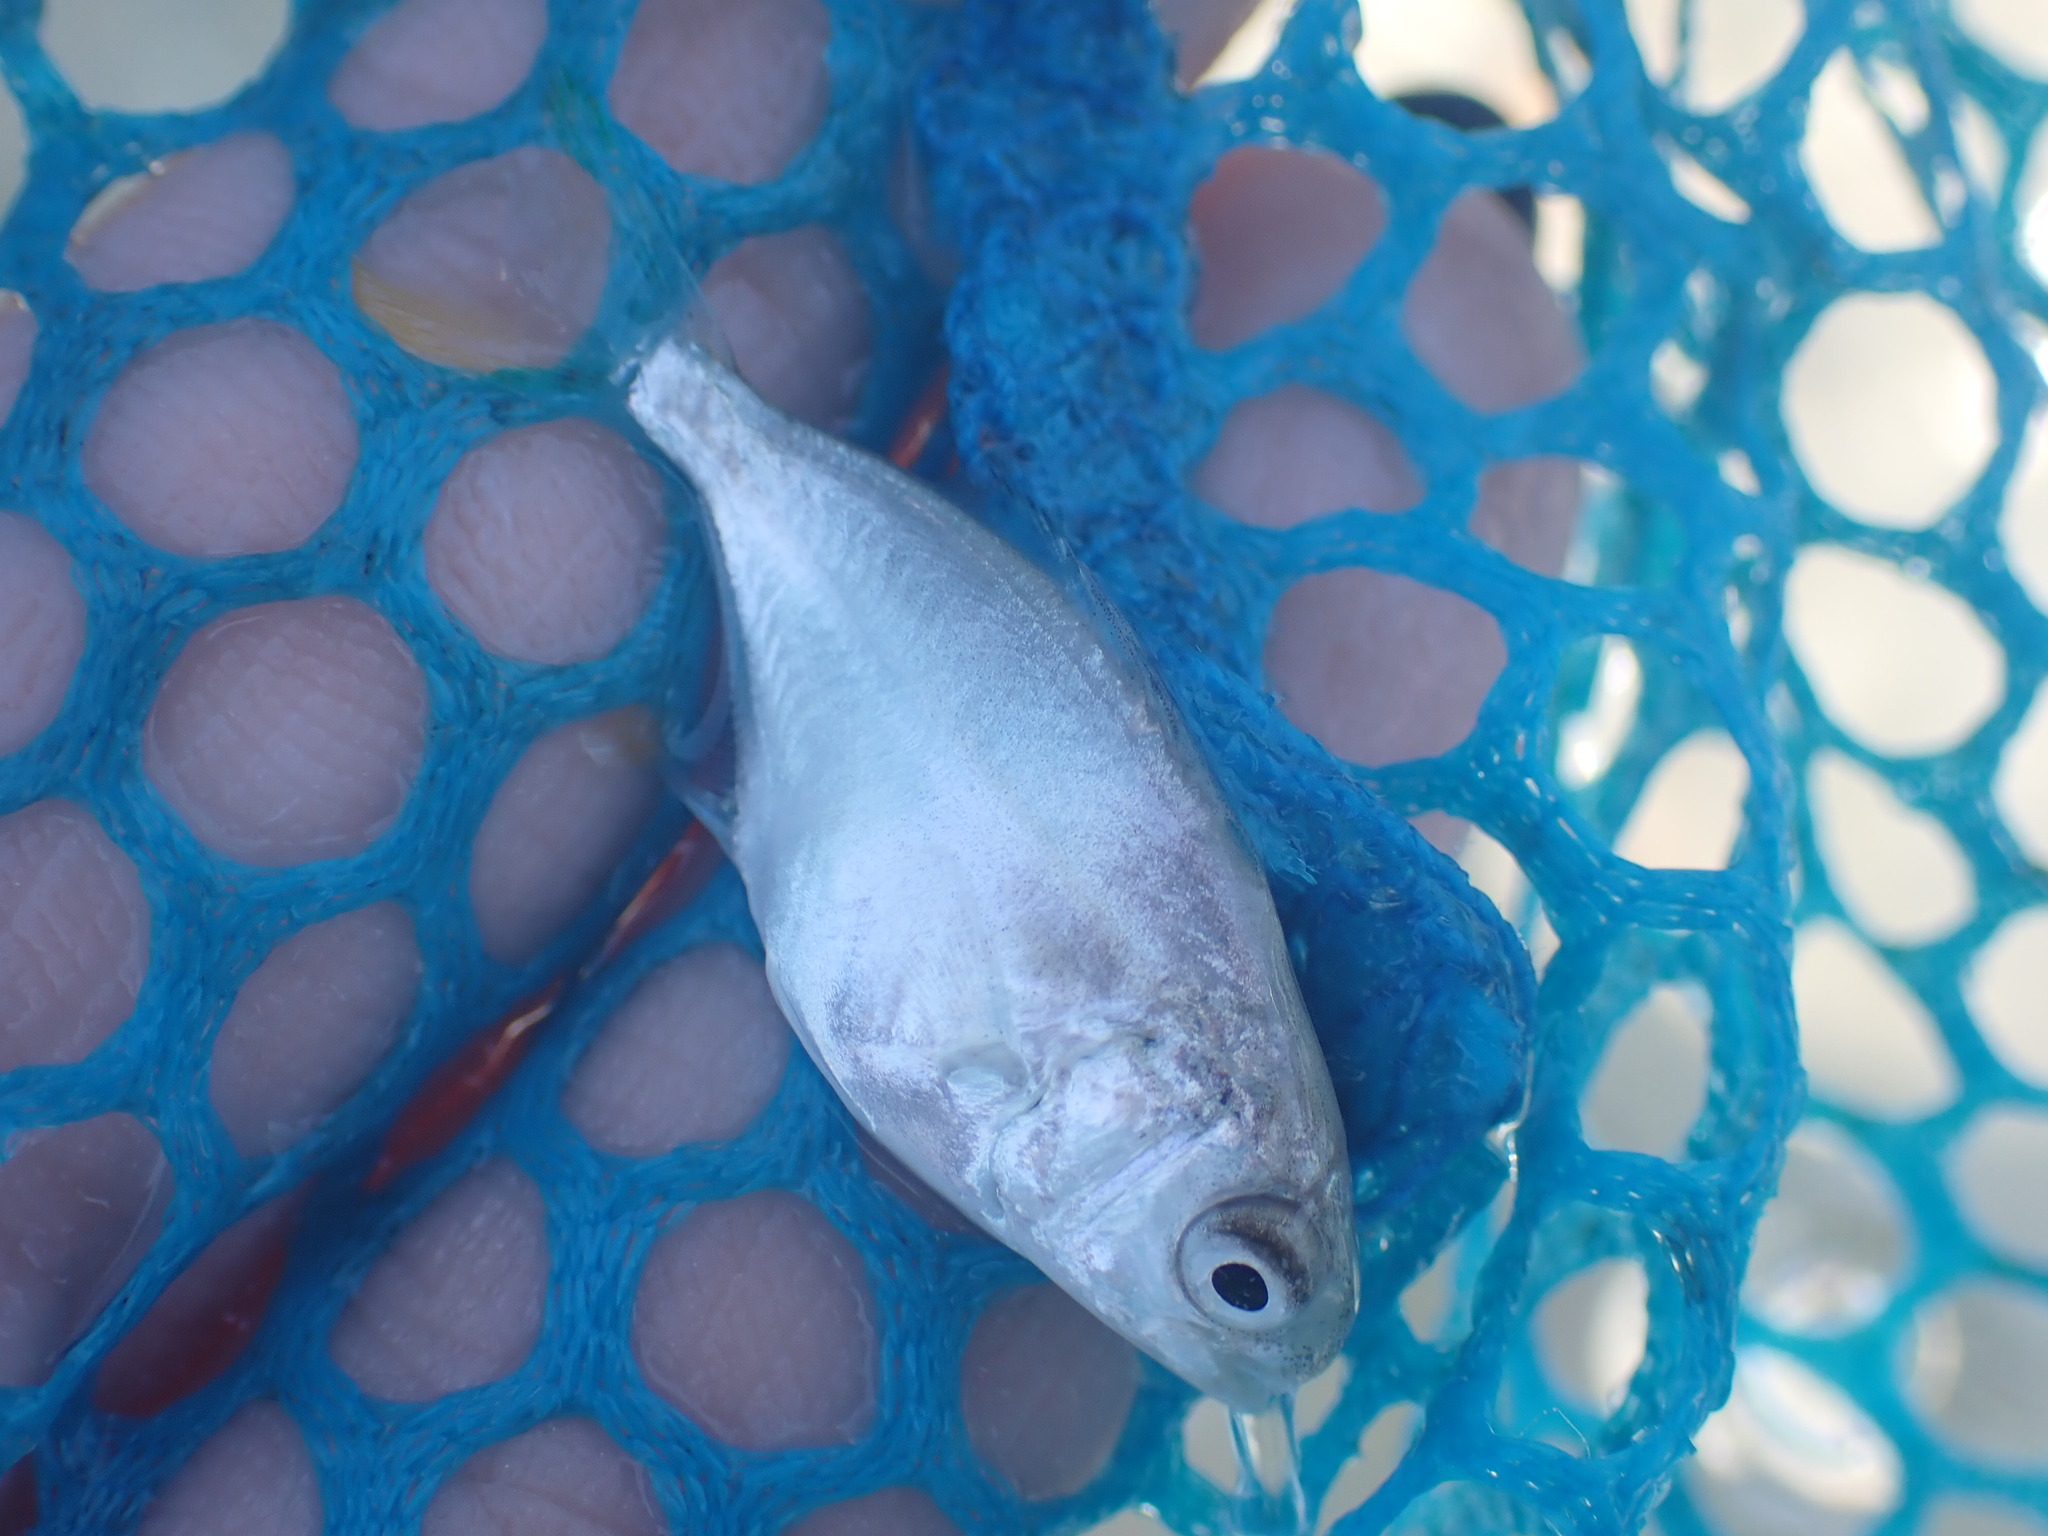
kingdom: Animalia
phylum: Chordata
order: Perciformes
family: Carangidae
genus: Trachinotus
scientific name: Trachinotus carolinus
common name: Florida pompano
